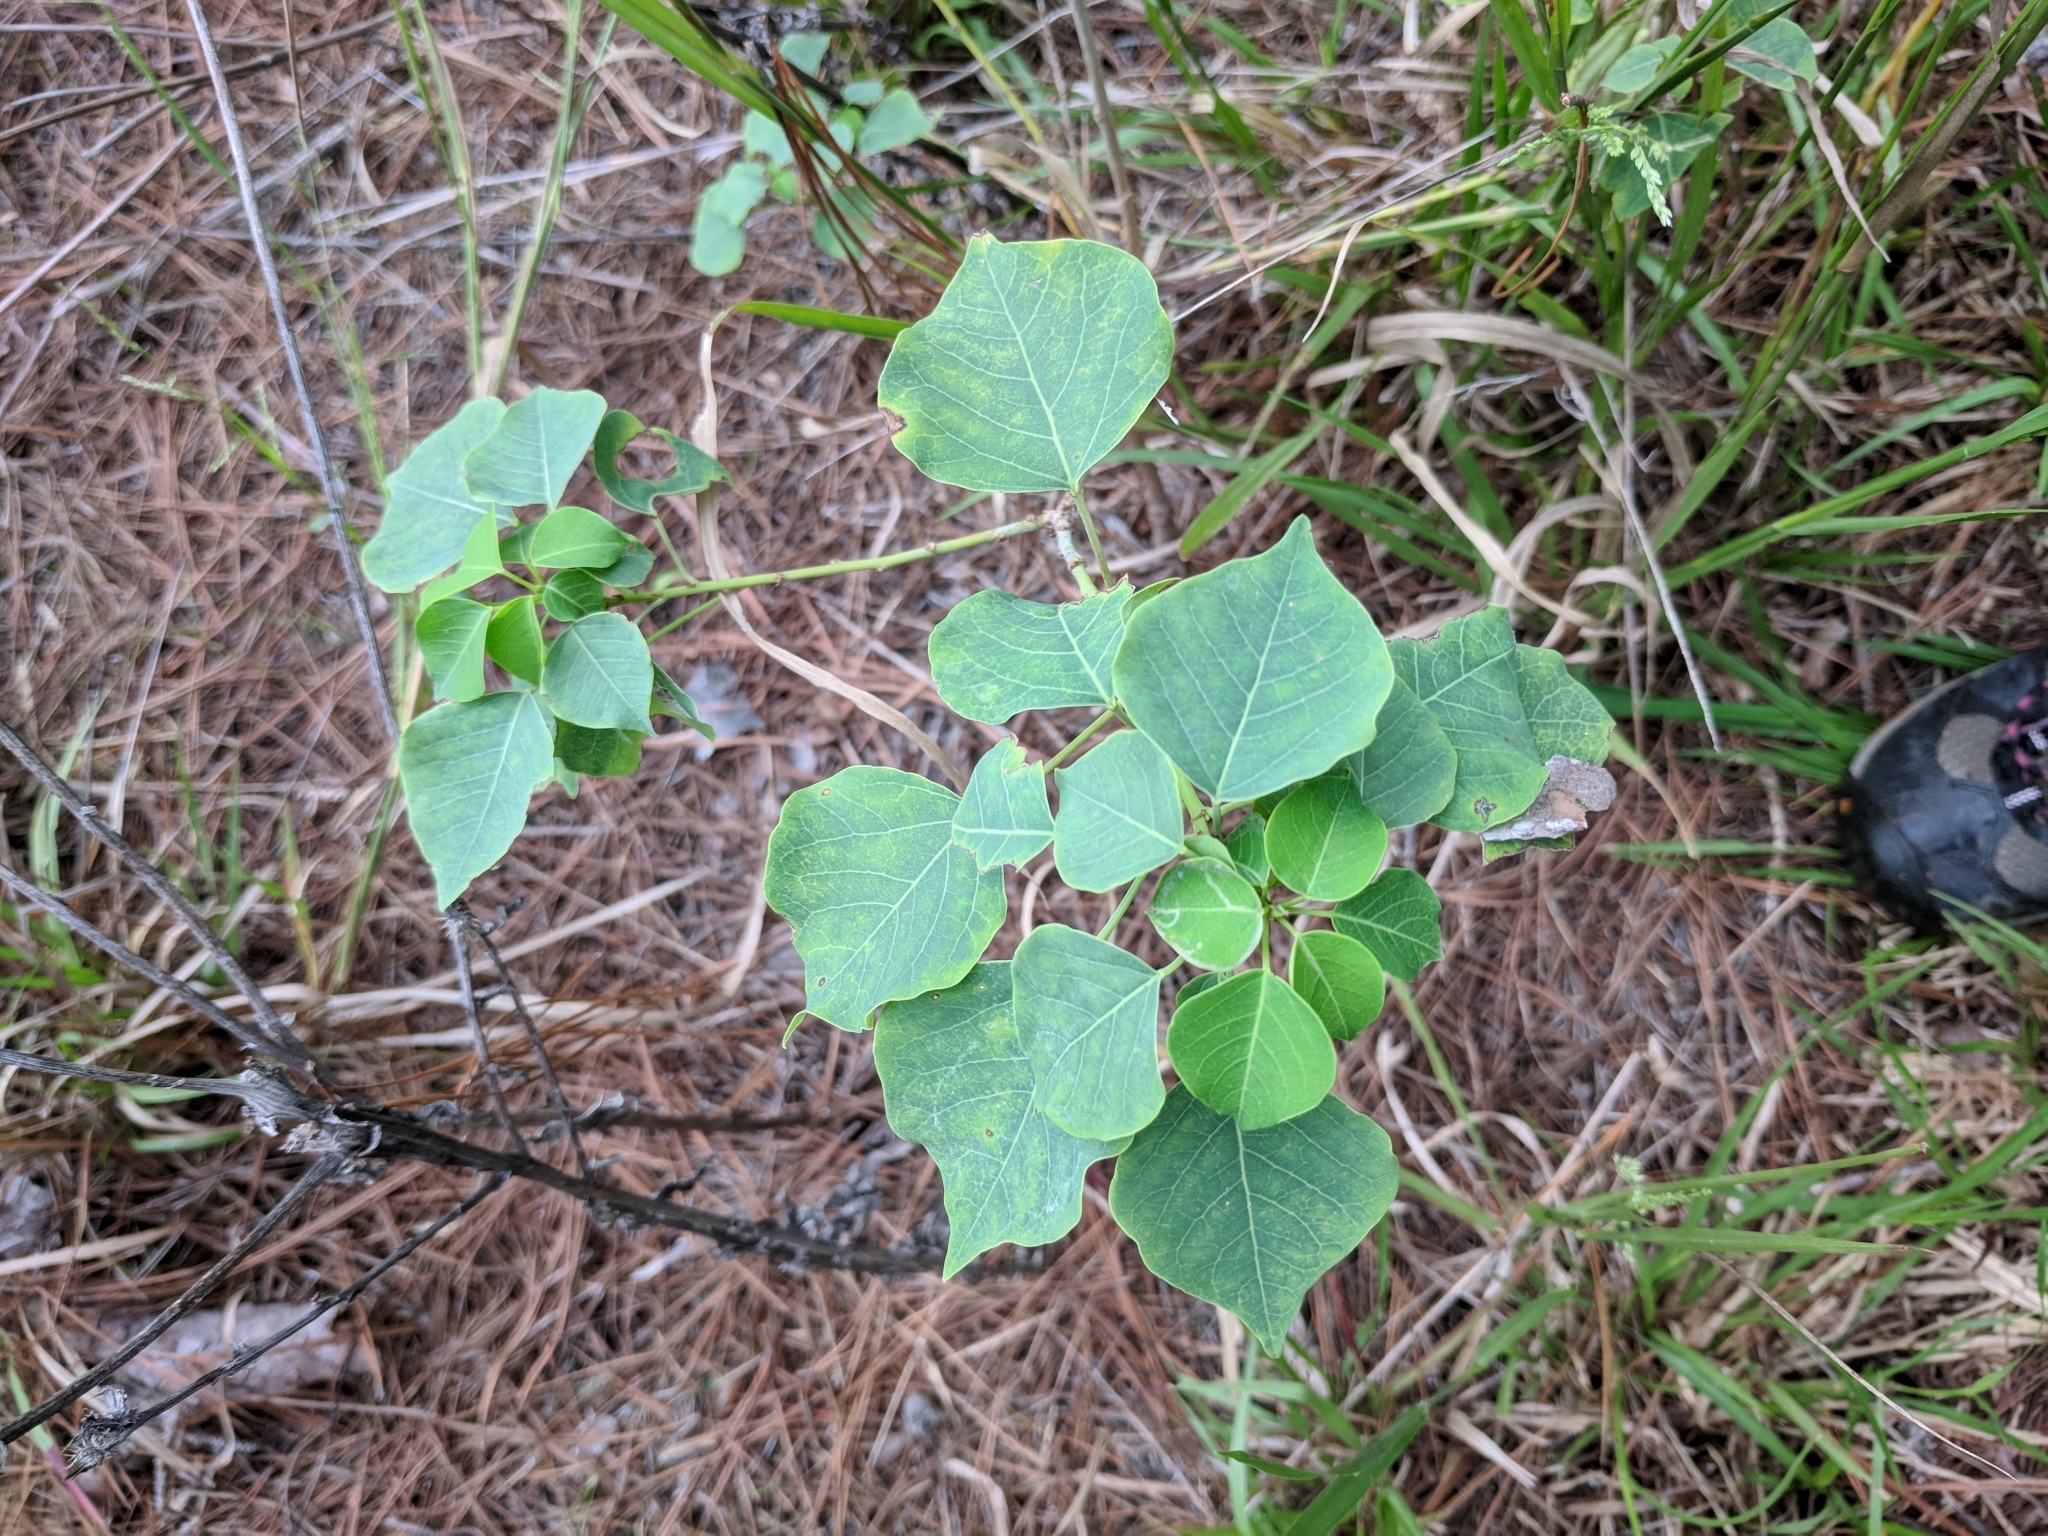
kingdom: Plantae
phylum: Tracheophyta
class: Magnoliopsida
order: Malpighiales
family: Euphorbiaceae
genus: Triadica
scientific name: Triadica sebifera
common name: Chinese tallow
